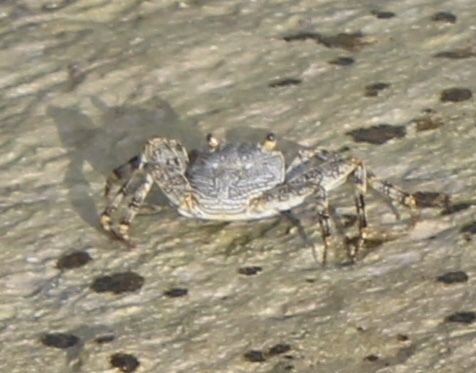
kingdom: Animalia
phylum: Arthropoda
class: Malacostraca
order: Decapoda
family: Grapsidae
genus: Grapsus
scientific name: Grapsus grapsus
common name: Sally lightfoot
